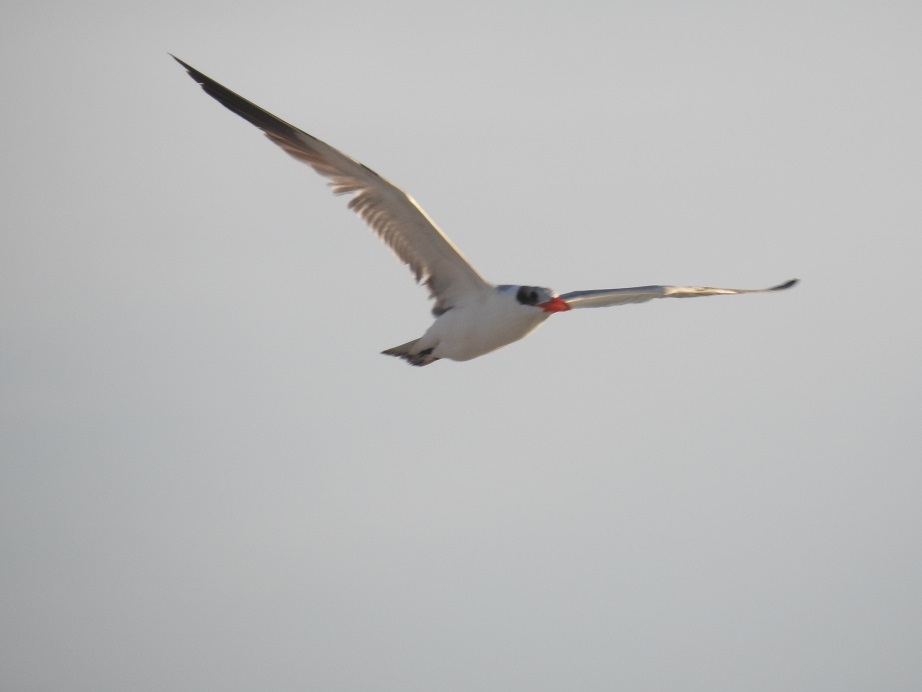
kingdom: Animalia
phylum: Chordata
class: Aves
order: Charadriiformes
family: Laridae
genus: Hydroprogne
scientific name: Hydroprogne caspia
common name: Caspian tern
